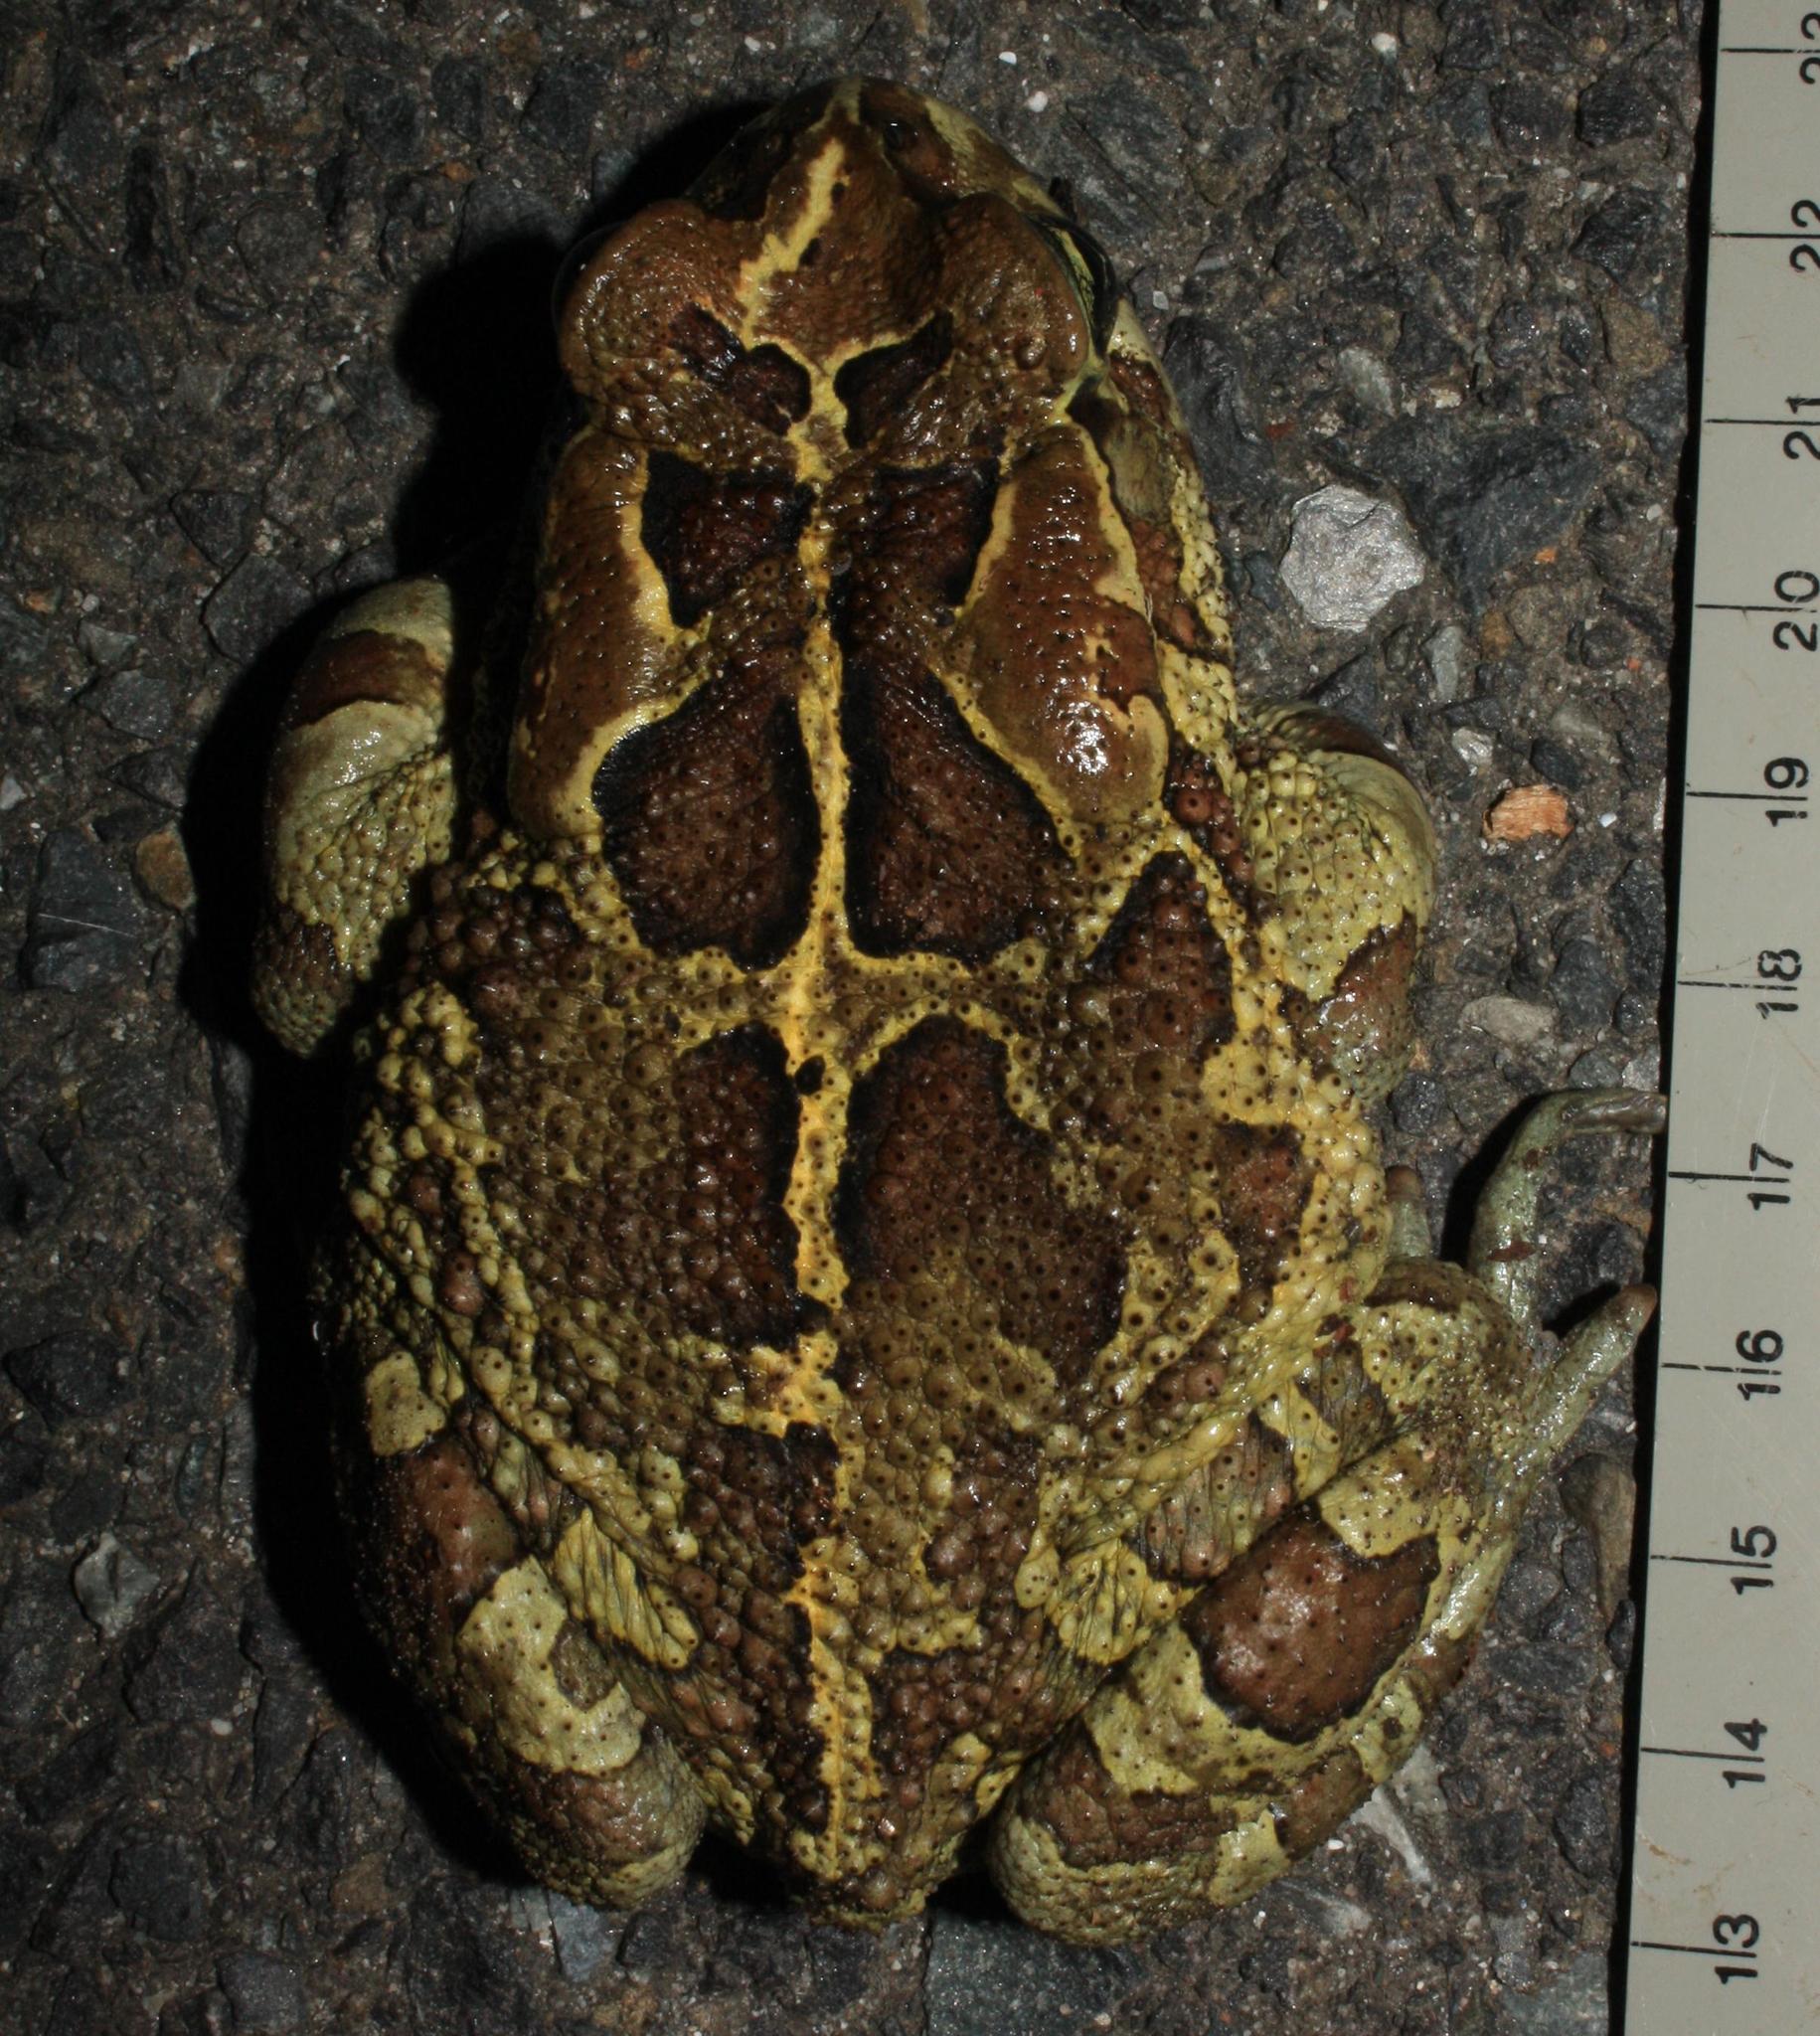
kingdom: Animalia
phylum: Chordata
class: Amphibia
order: Anura
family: Bufonidae
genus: Sclerophrys
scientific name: Sclerophrys pantherina
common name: Panther toad
